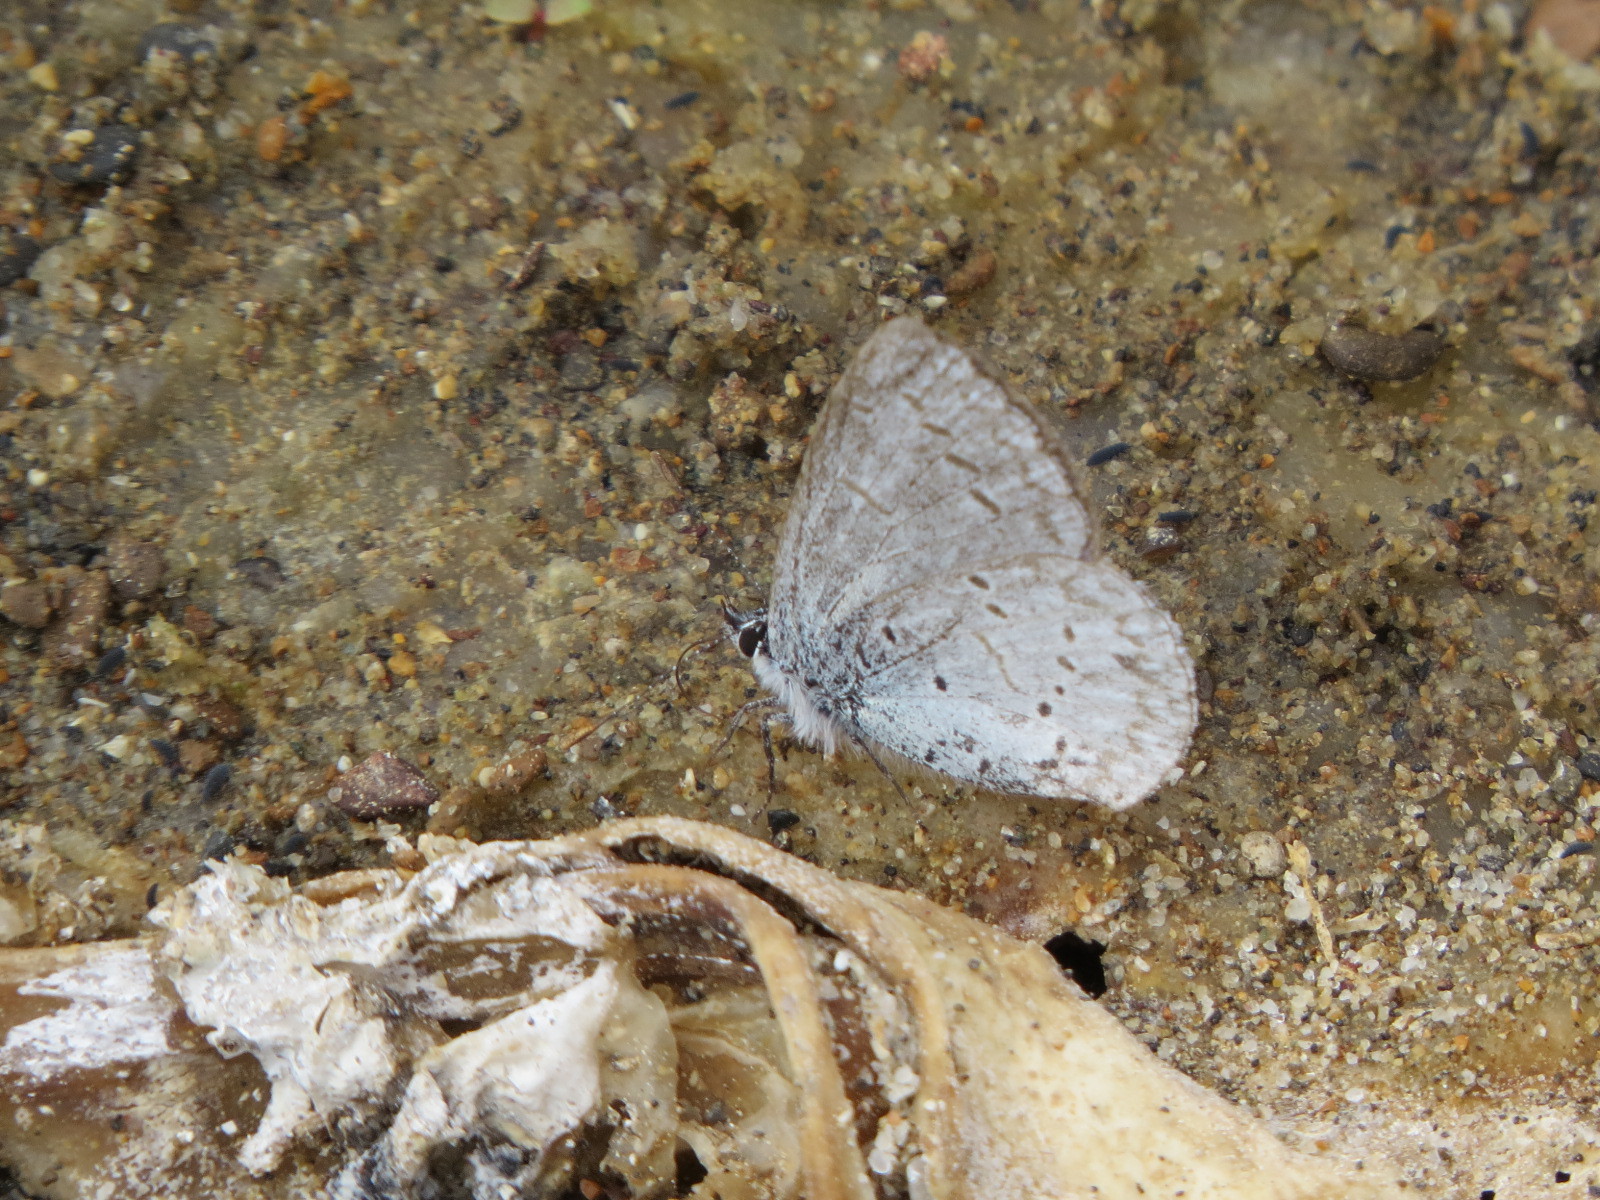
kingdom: Animalia
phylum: Arthropoda
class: Insecta
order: Lepidoptera
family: Lycaenidae
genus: Celastrina
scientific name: Celastrina ladon
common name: Spring azure
